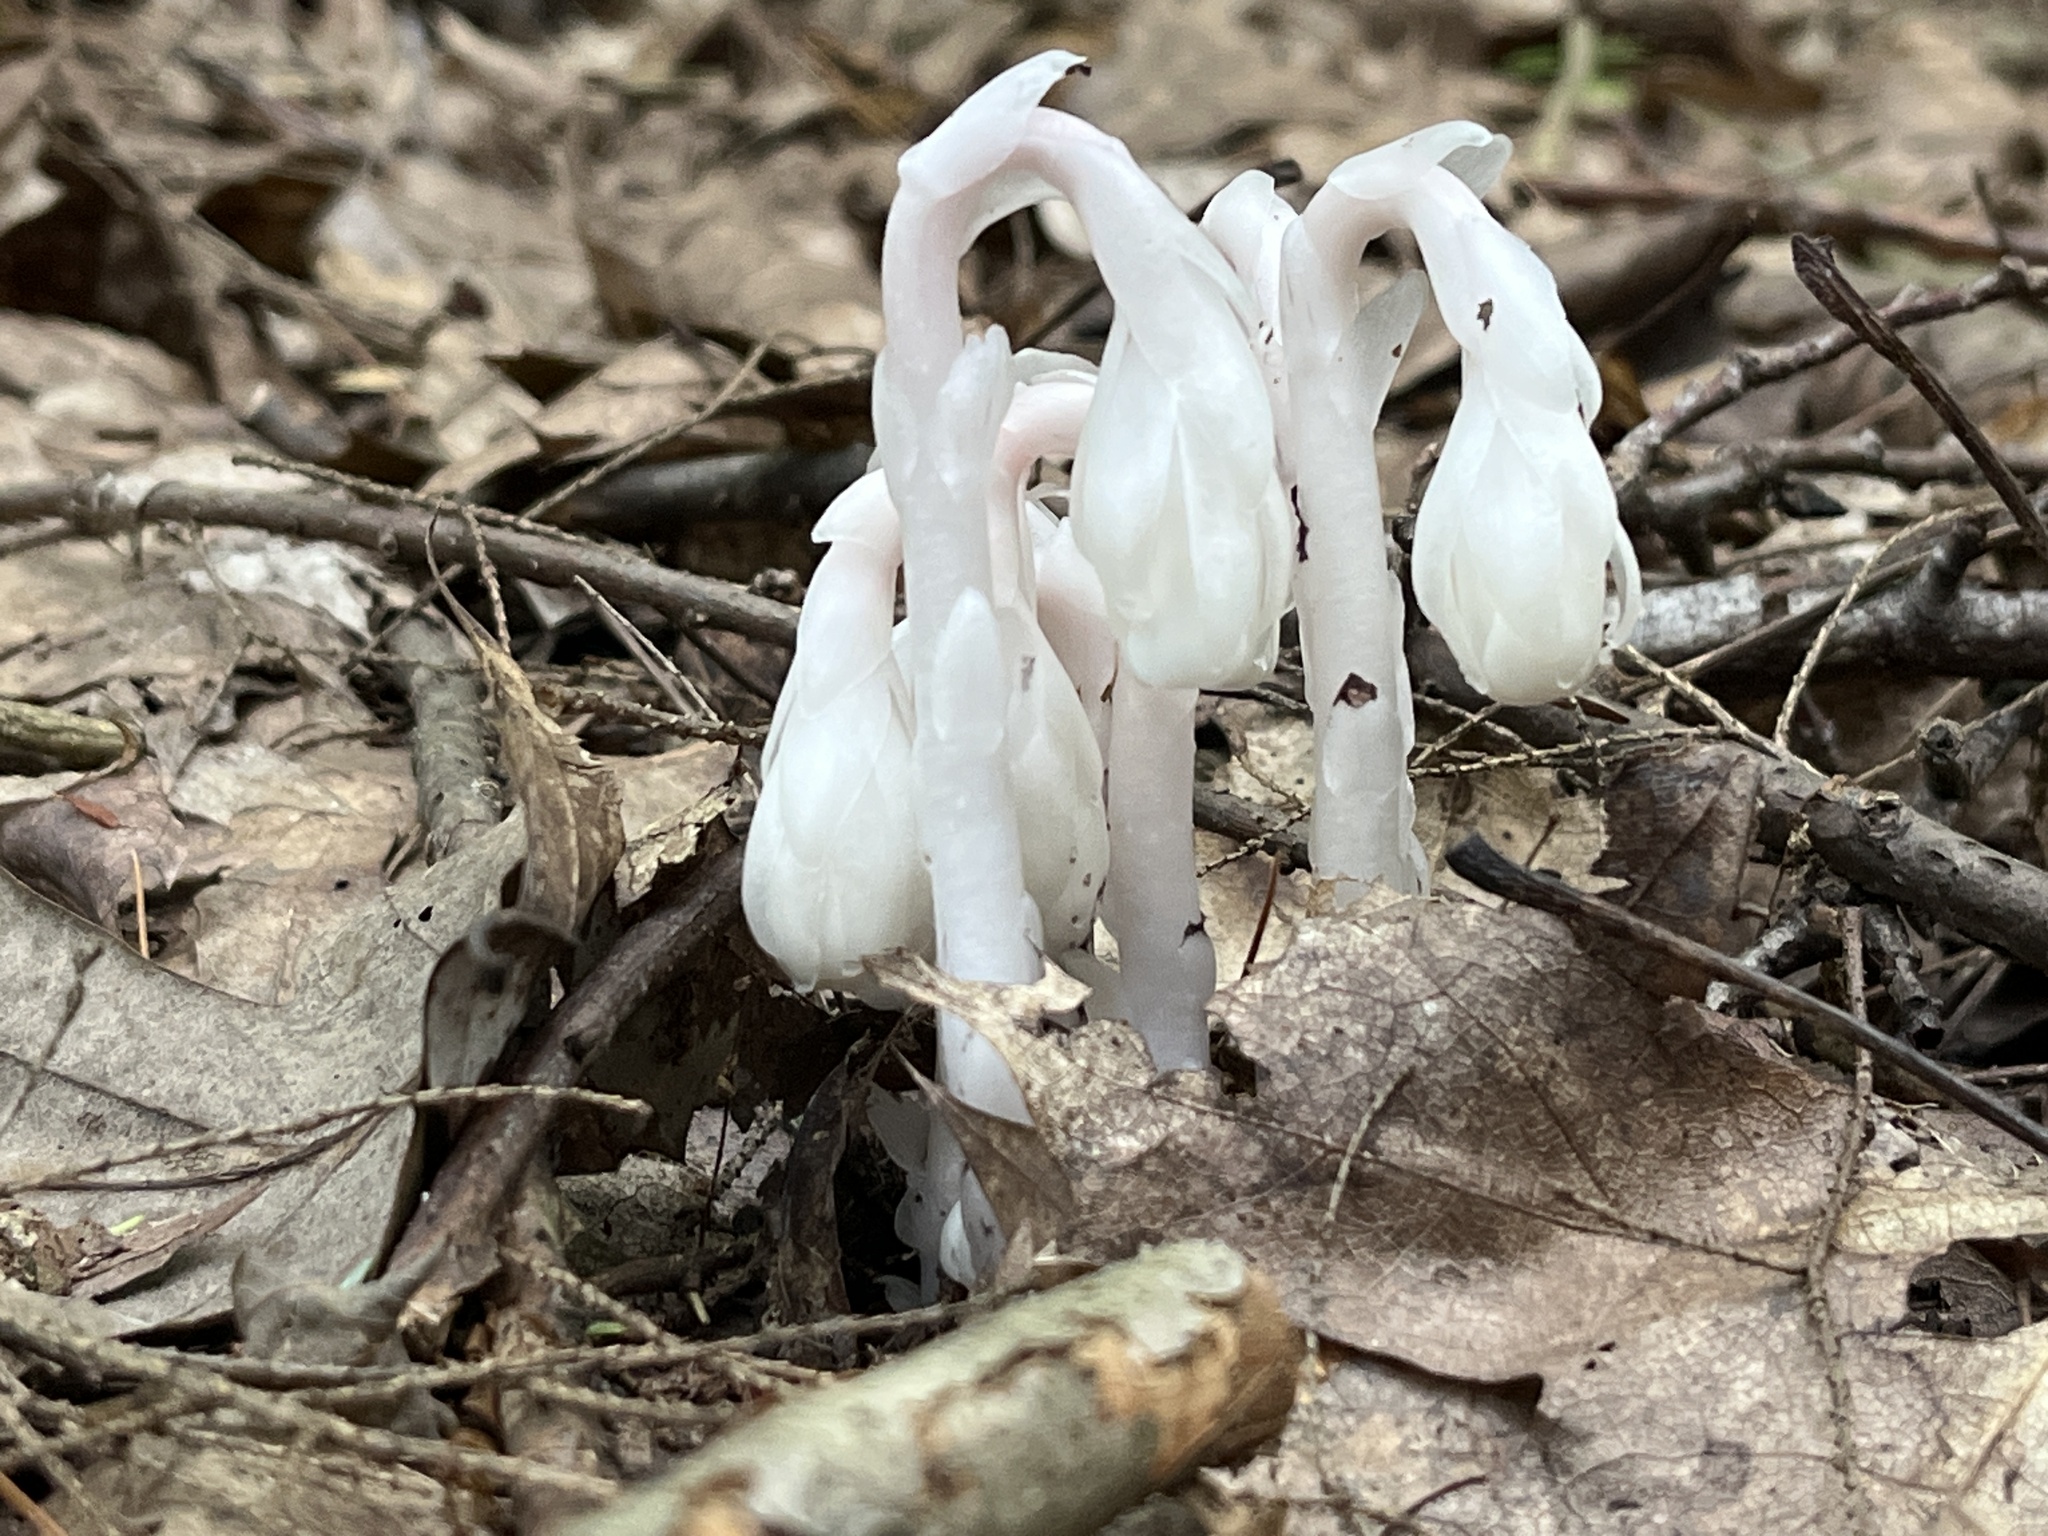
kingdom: Plantae
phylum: Tracheophyta
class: Magnoliopsida
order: Ericales
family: Ericaceae
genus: Monotropa
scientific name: Monotropa uniflora
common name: Convulsion root
